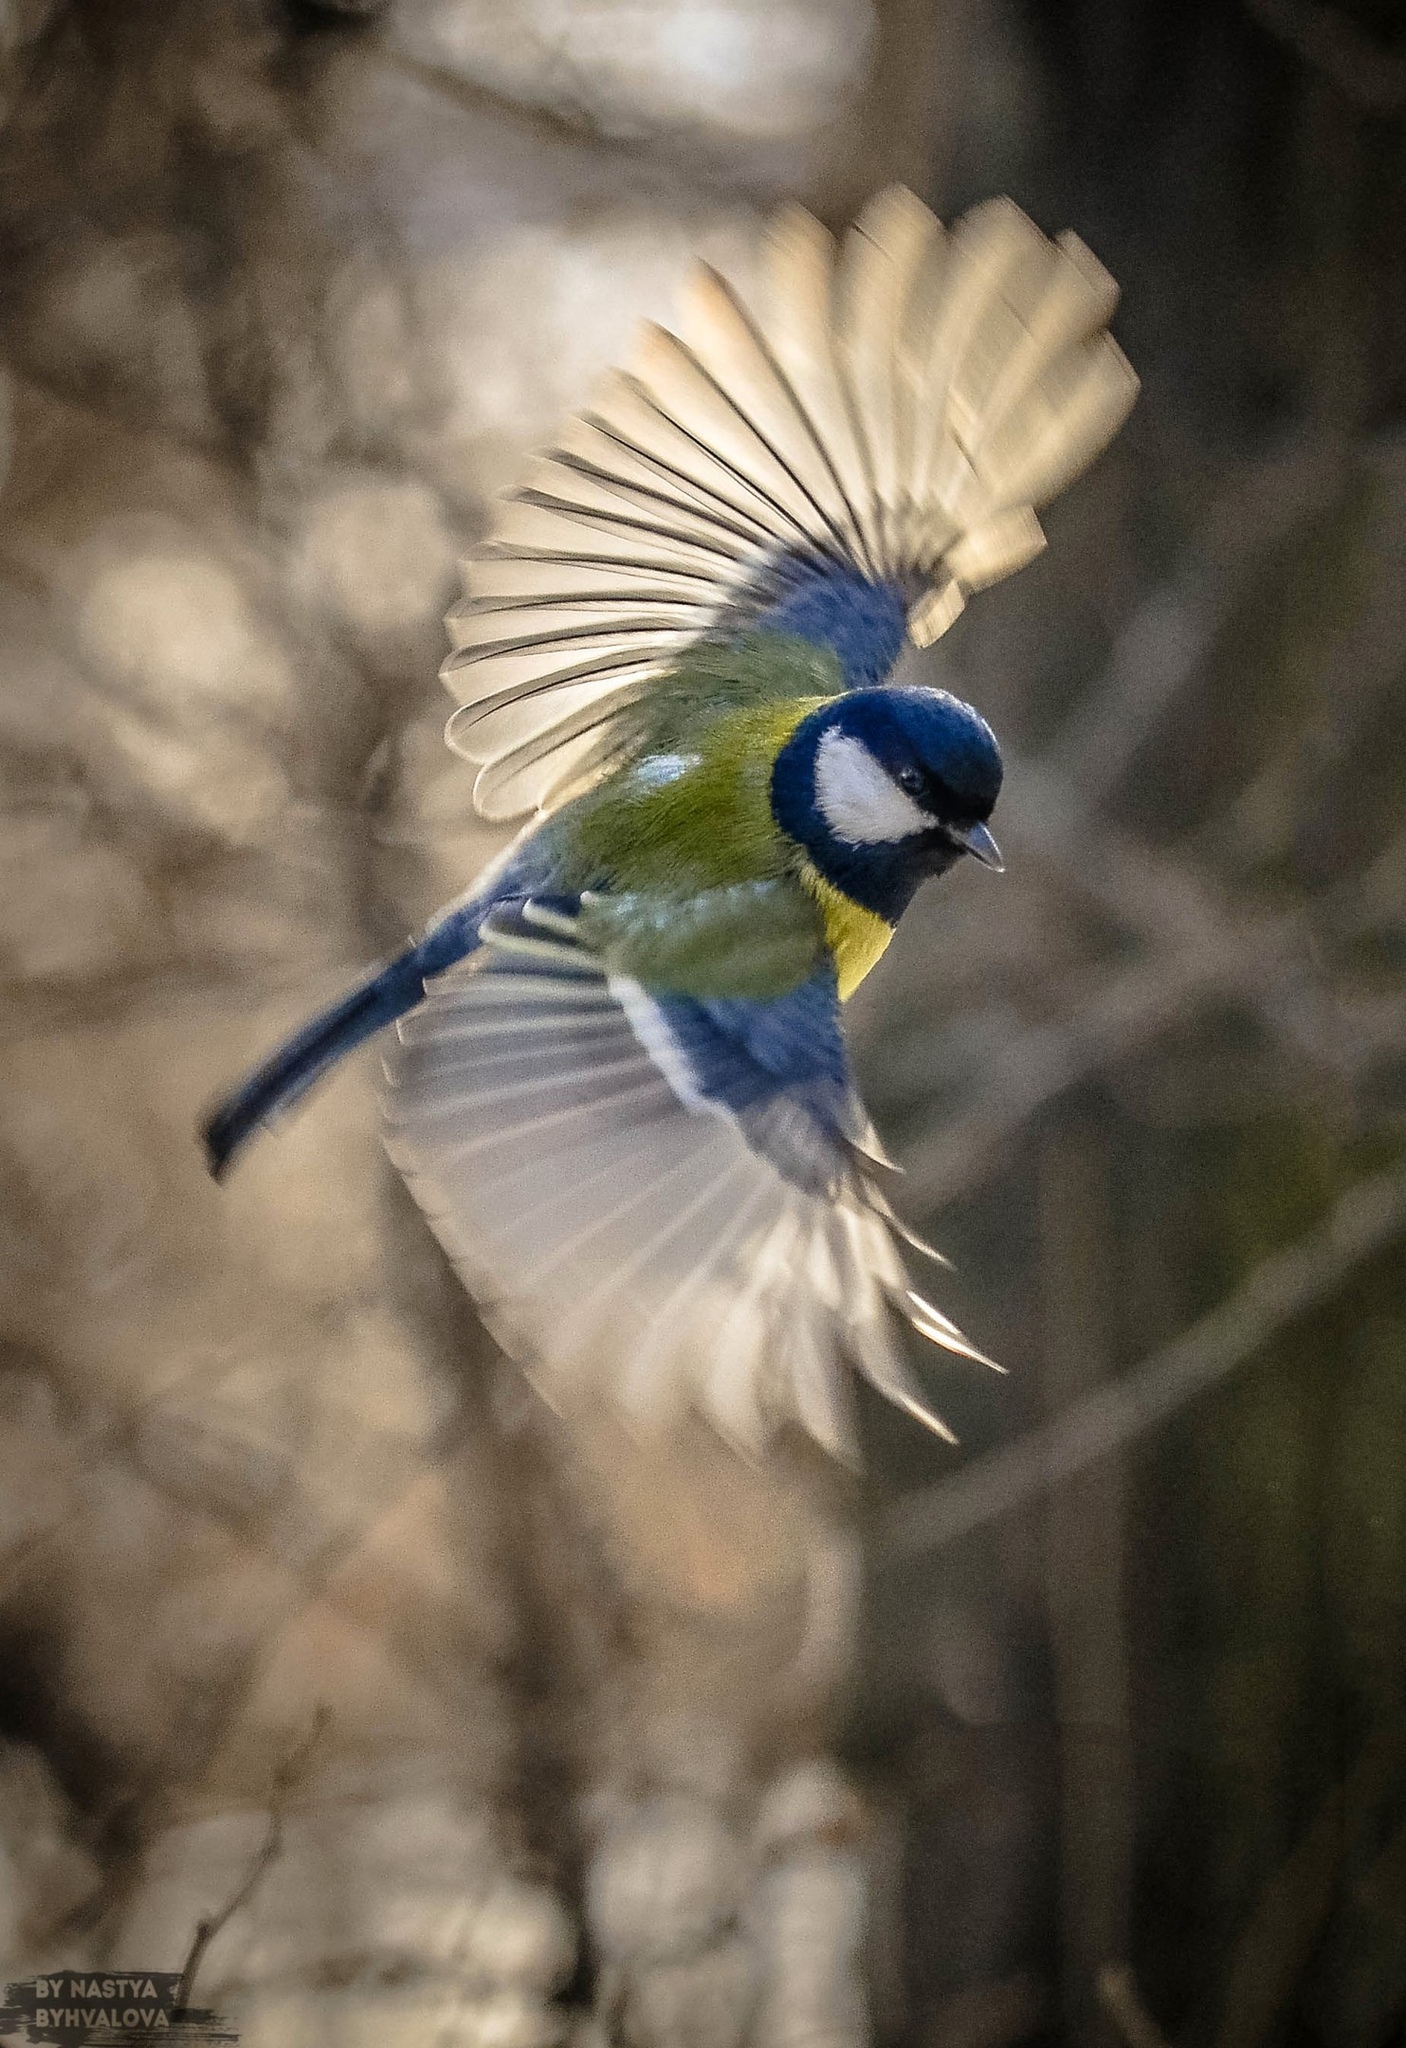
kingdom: Animalia
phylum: Chordata
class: Aves
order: Passeriformes
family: Paridae
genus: Parus
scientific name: Parus major
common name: Great tit
